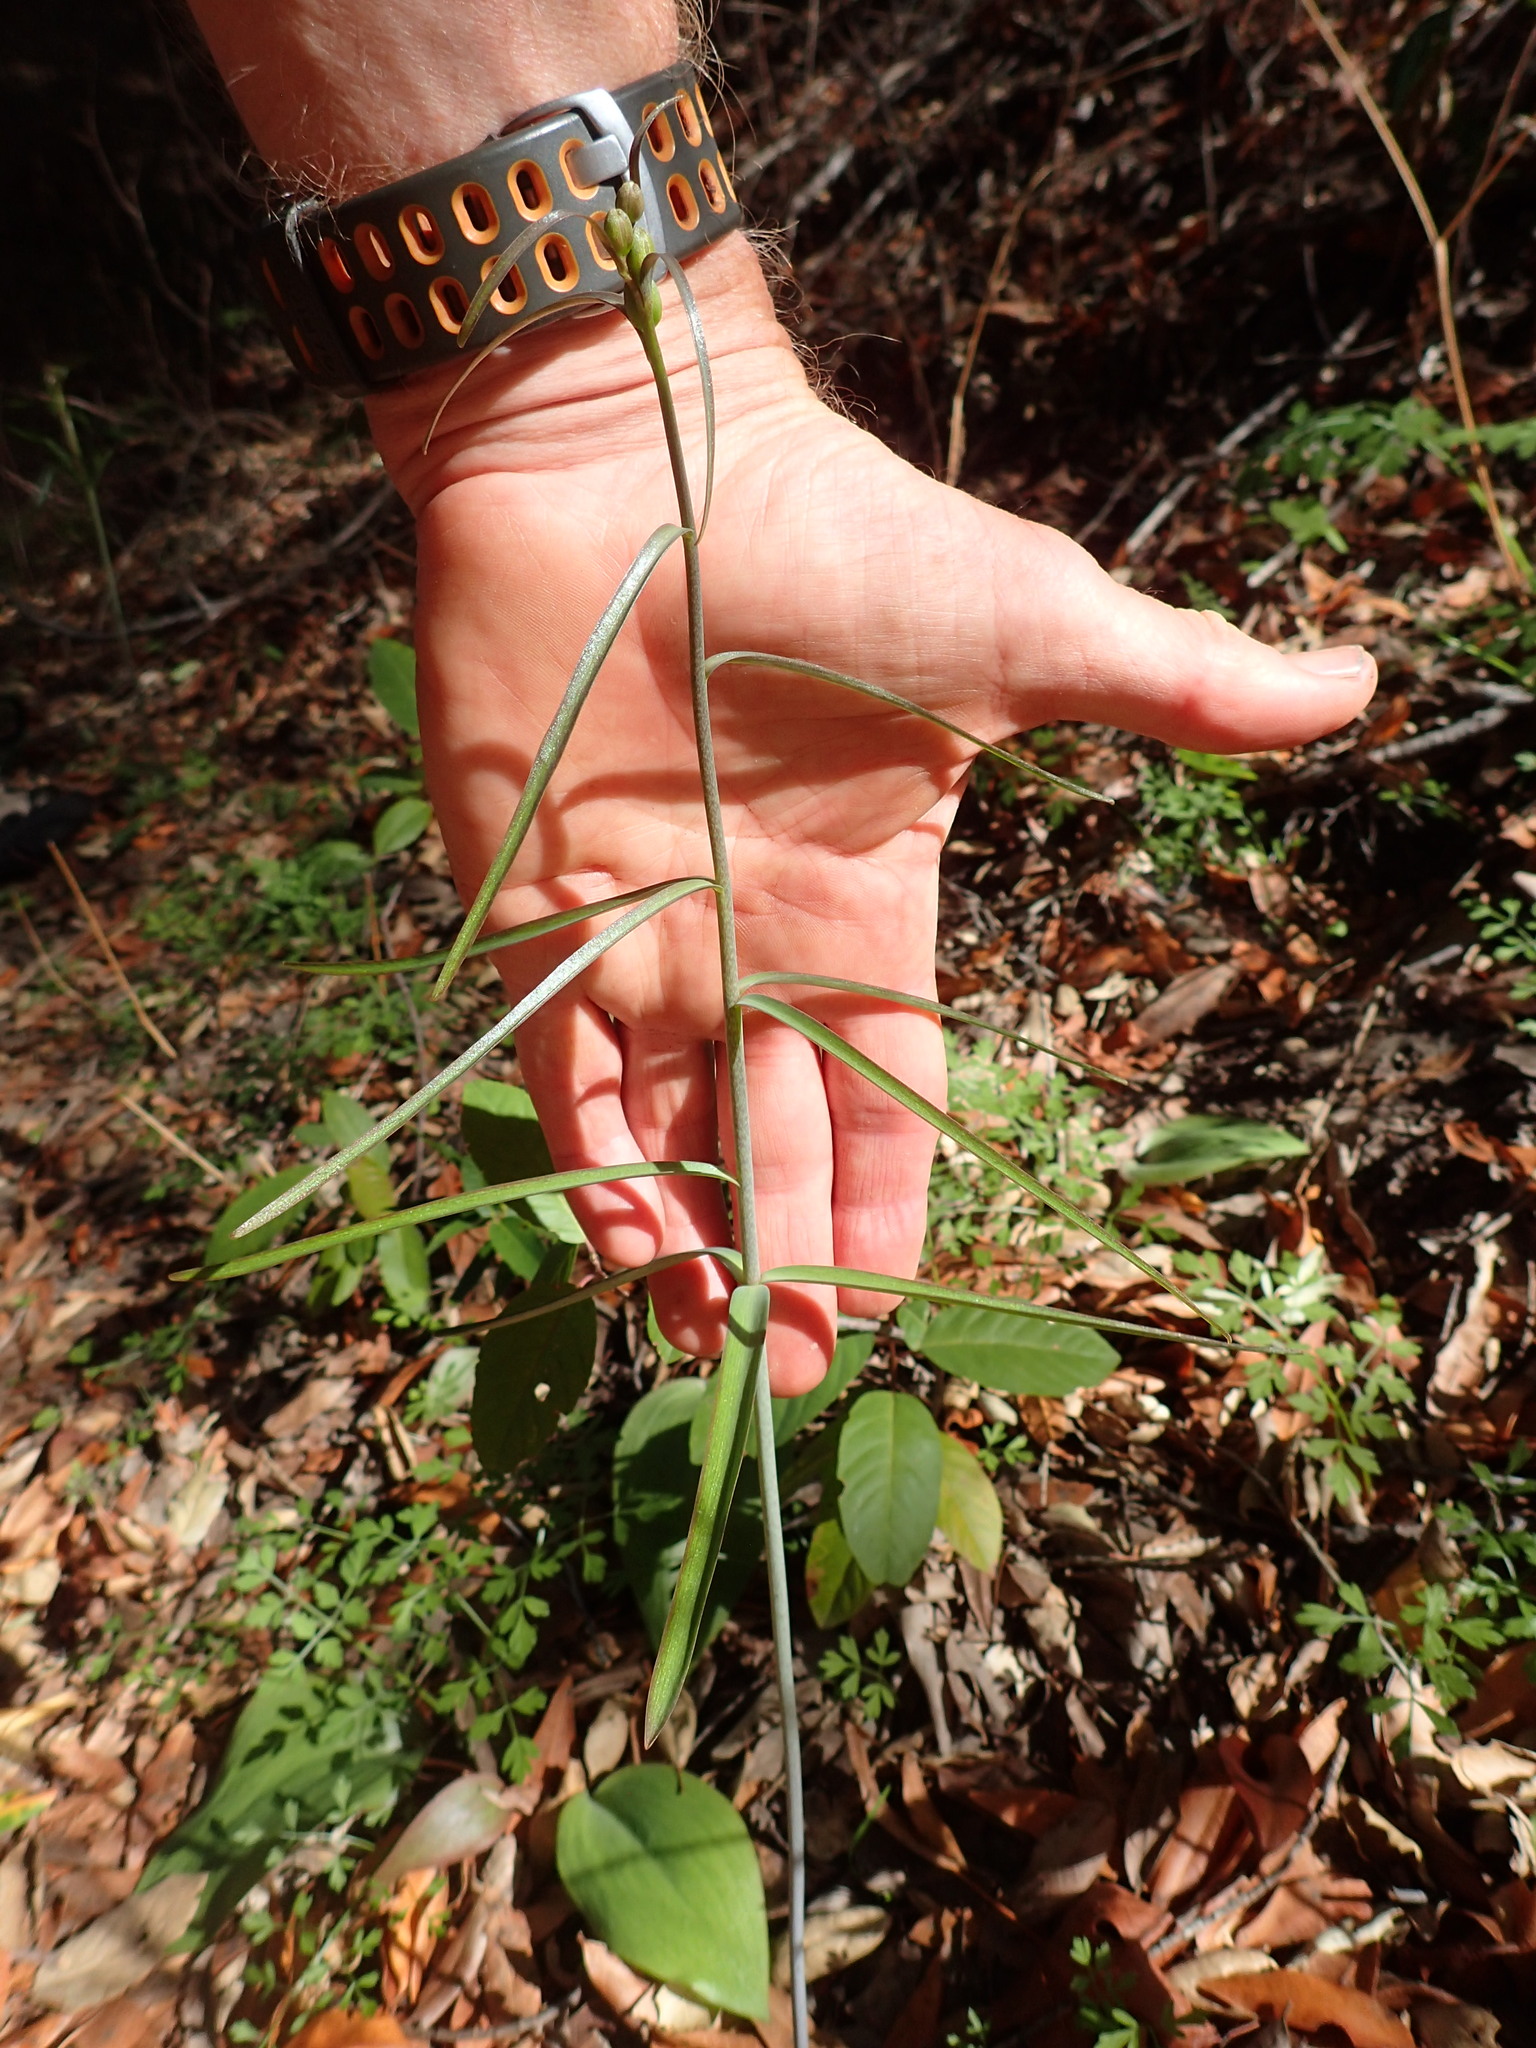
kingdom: Plantae
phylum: Tracheophyta
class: Liliopsida
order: Liliales
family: Liliaceae
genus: Fritillaria
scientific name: Fritillaria ojaiensis
